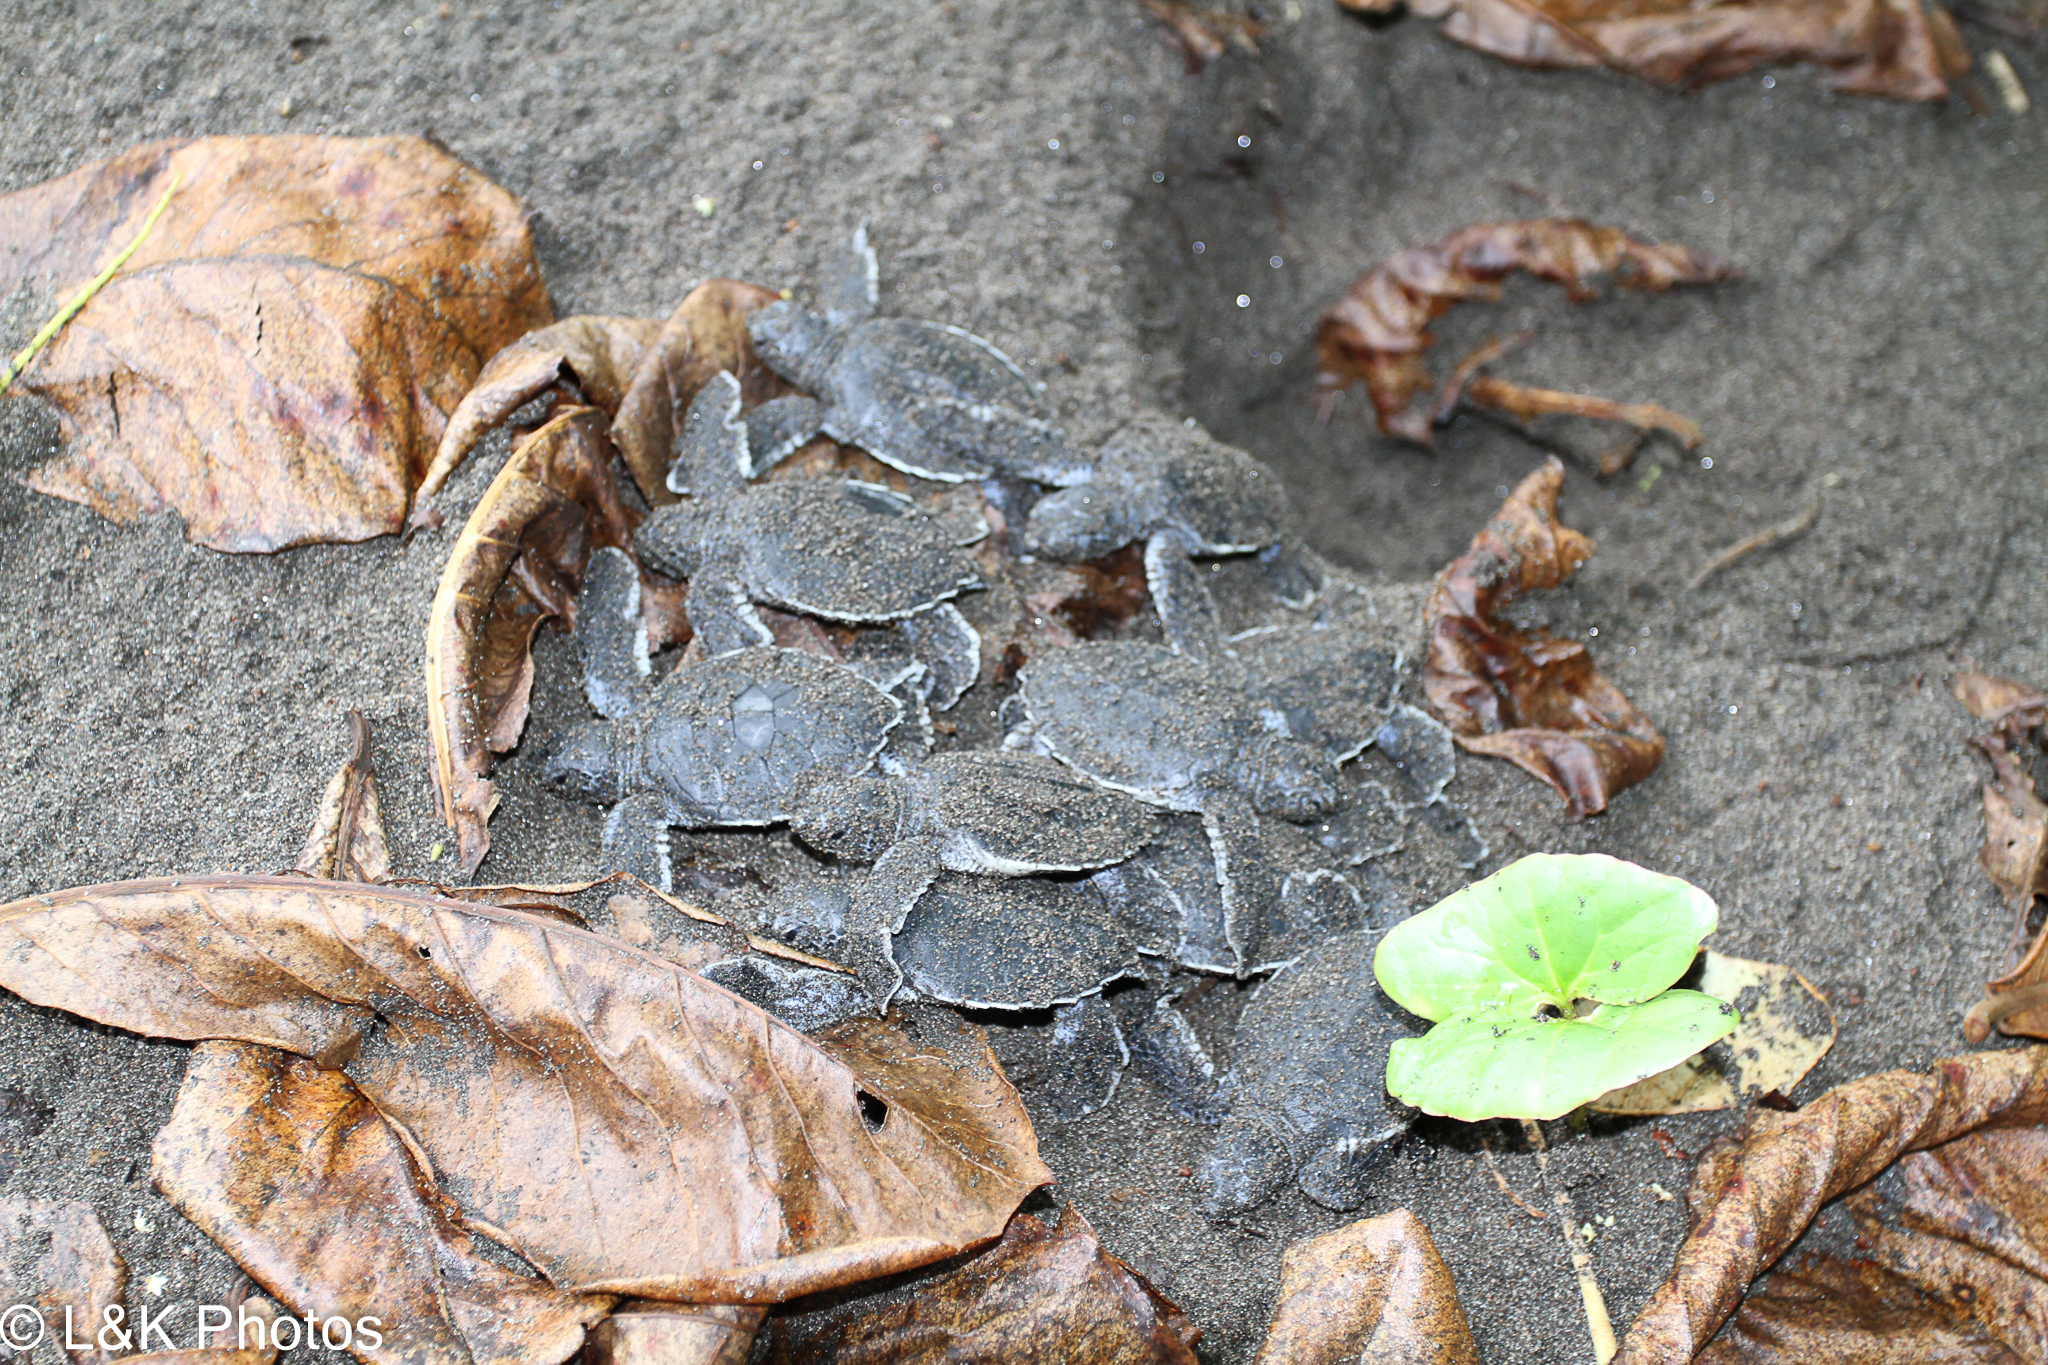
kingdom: Animalia
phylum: Chordata
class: Testudines
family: Cheloniidae
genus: Chelonia
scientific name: Chelonia mydas
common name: Green turtle
